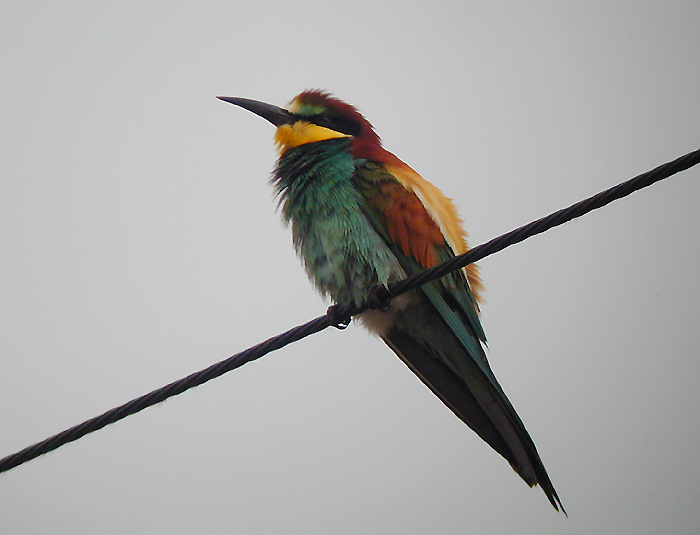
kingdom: Animalia
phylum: Chordata
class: Aves
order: Coraciiformes
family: Meropidae
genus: Merops
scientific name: Merops apiaster
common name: European bee-eater
